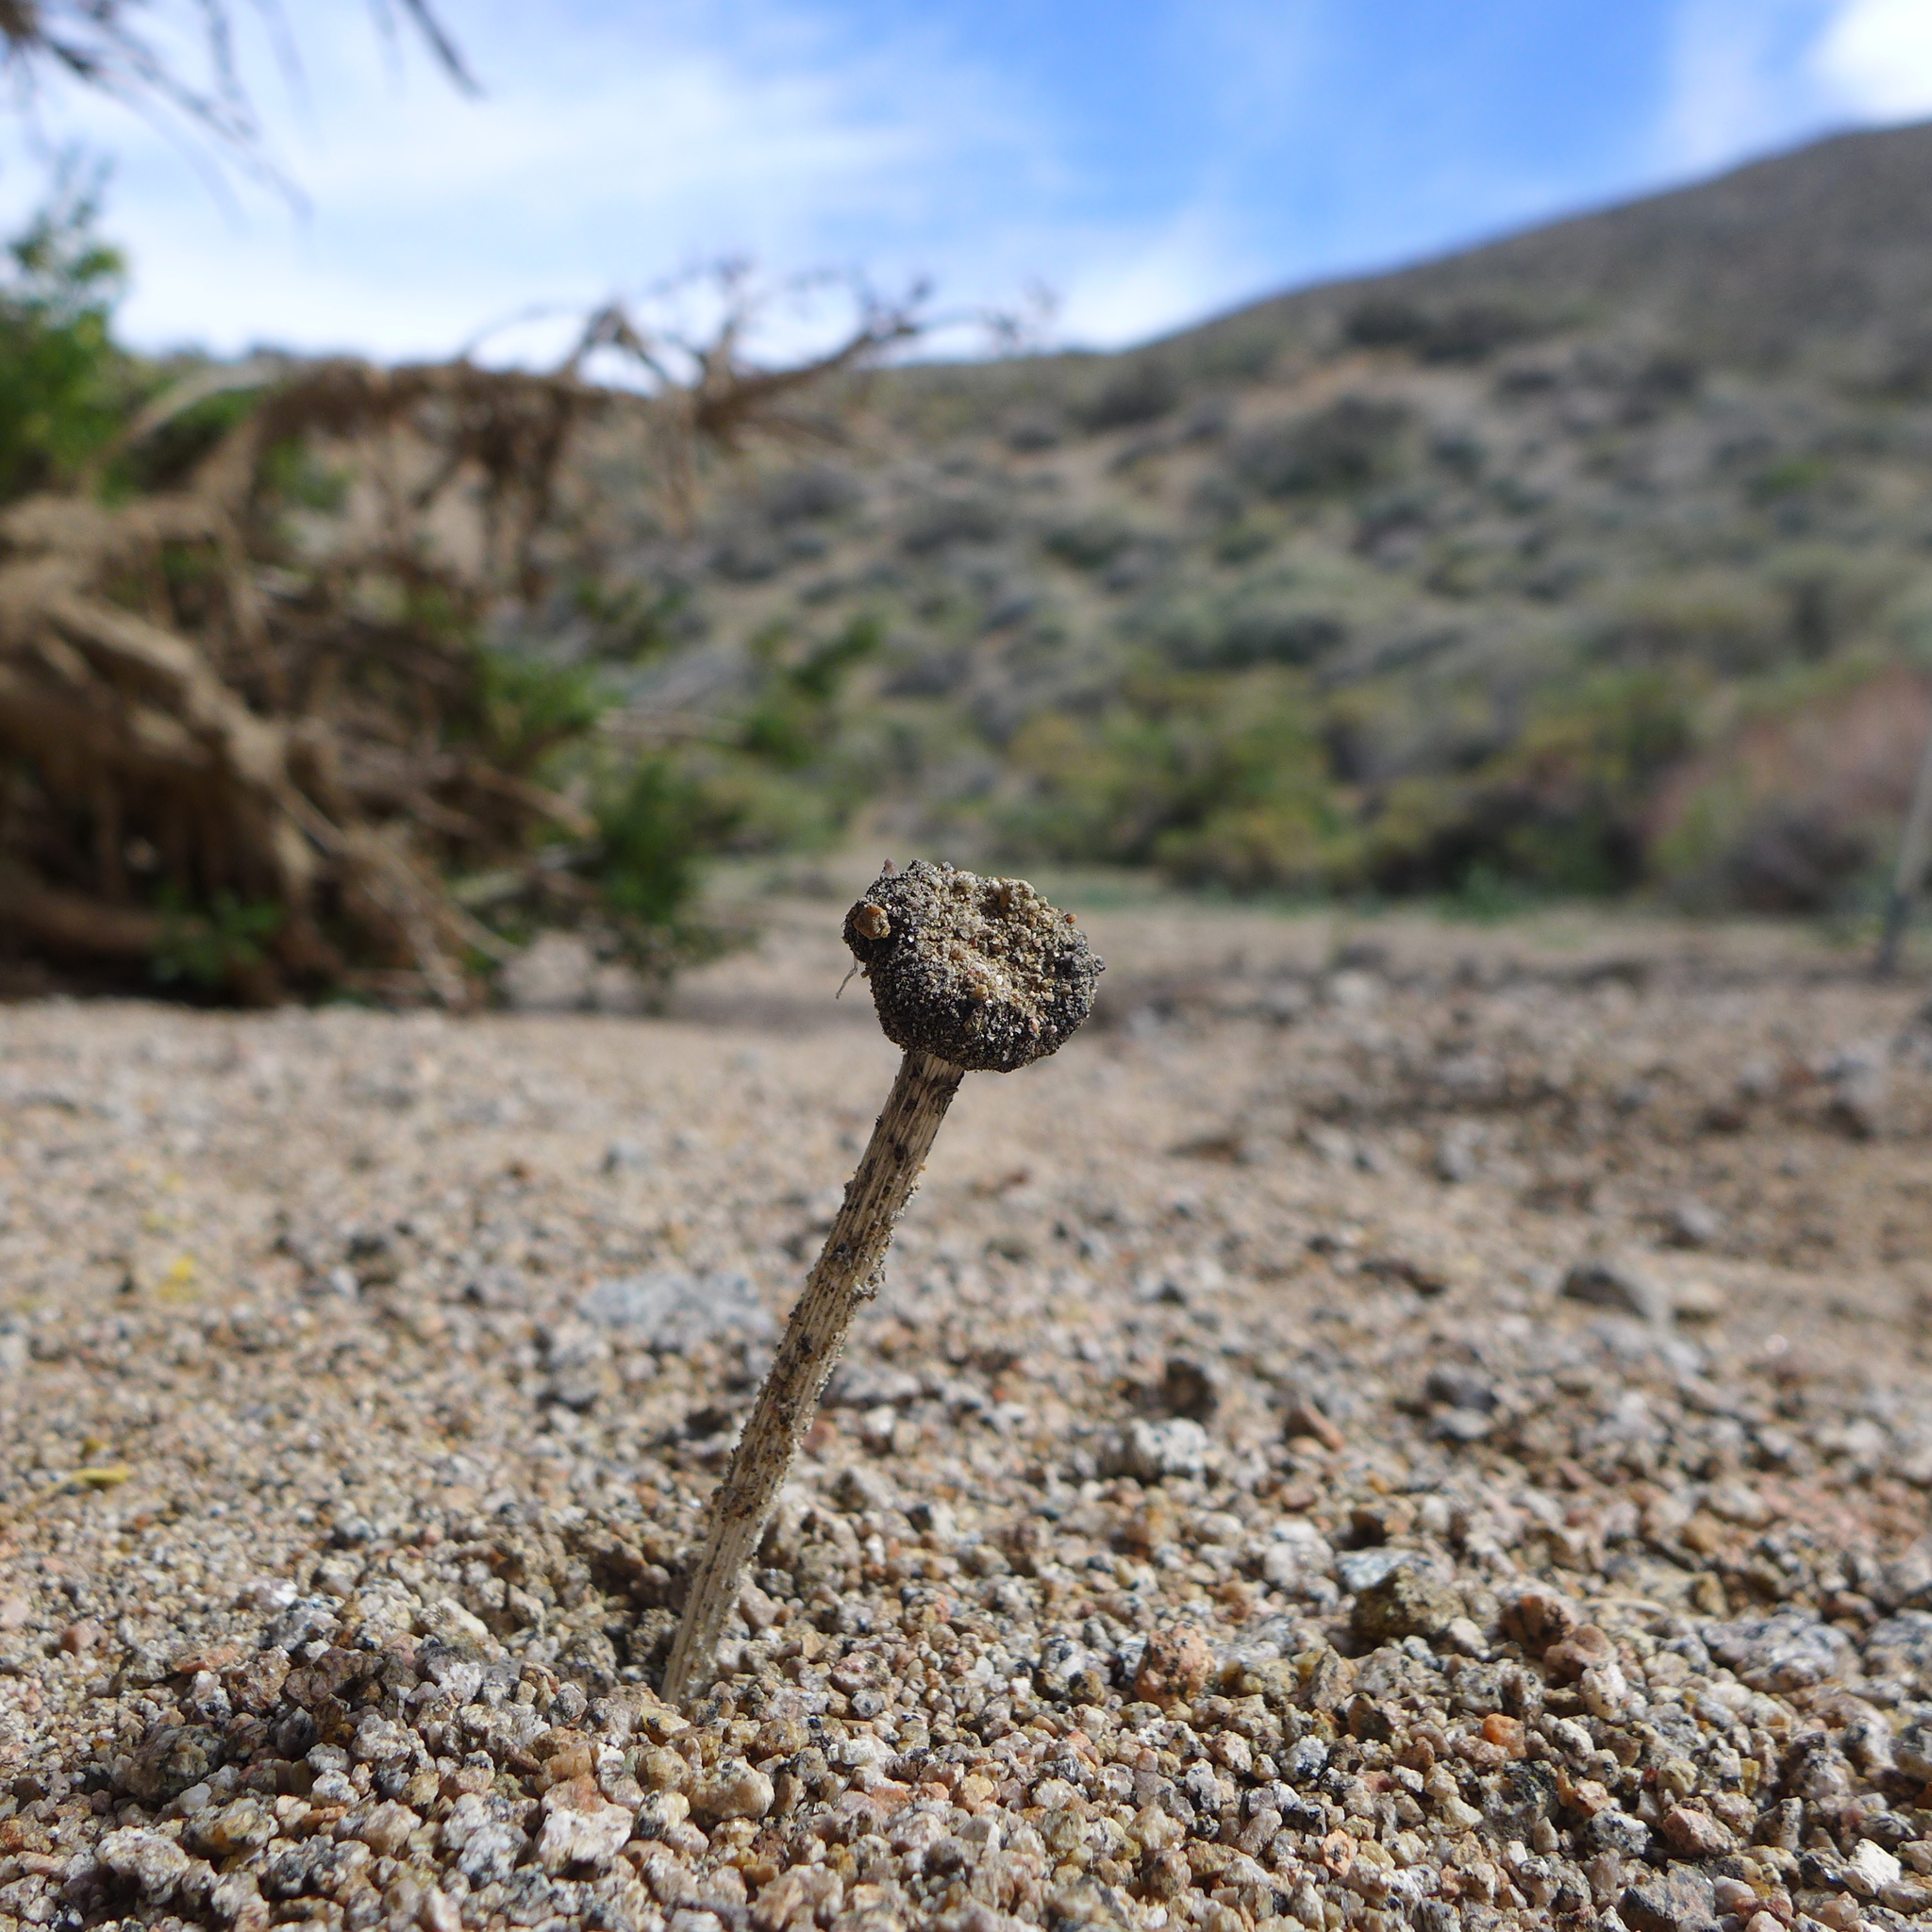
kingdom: Fungi
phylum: Basidiomycota
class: Agaricomycetes
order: Agaricales
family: Agaricaceae
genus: Montagnea
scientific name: Montagnea arenaria
